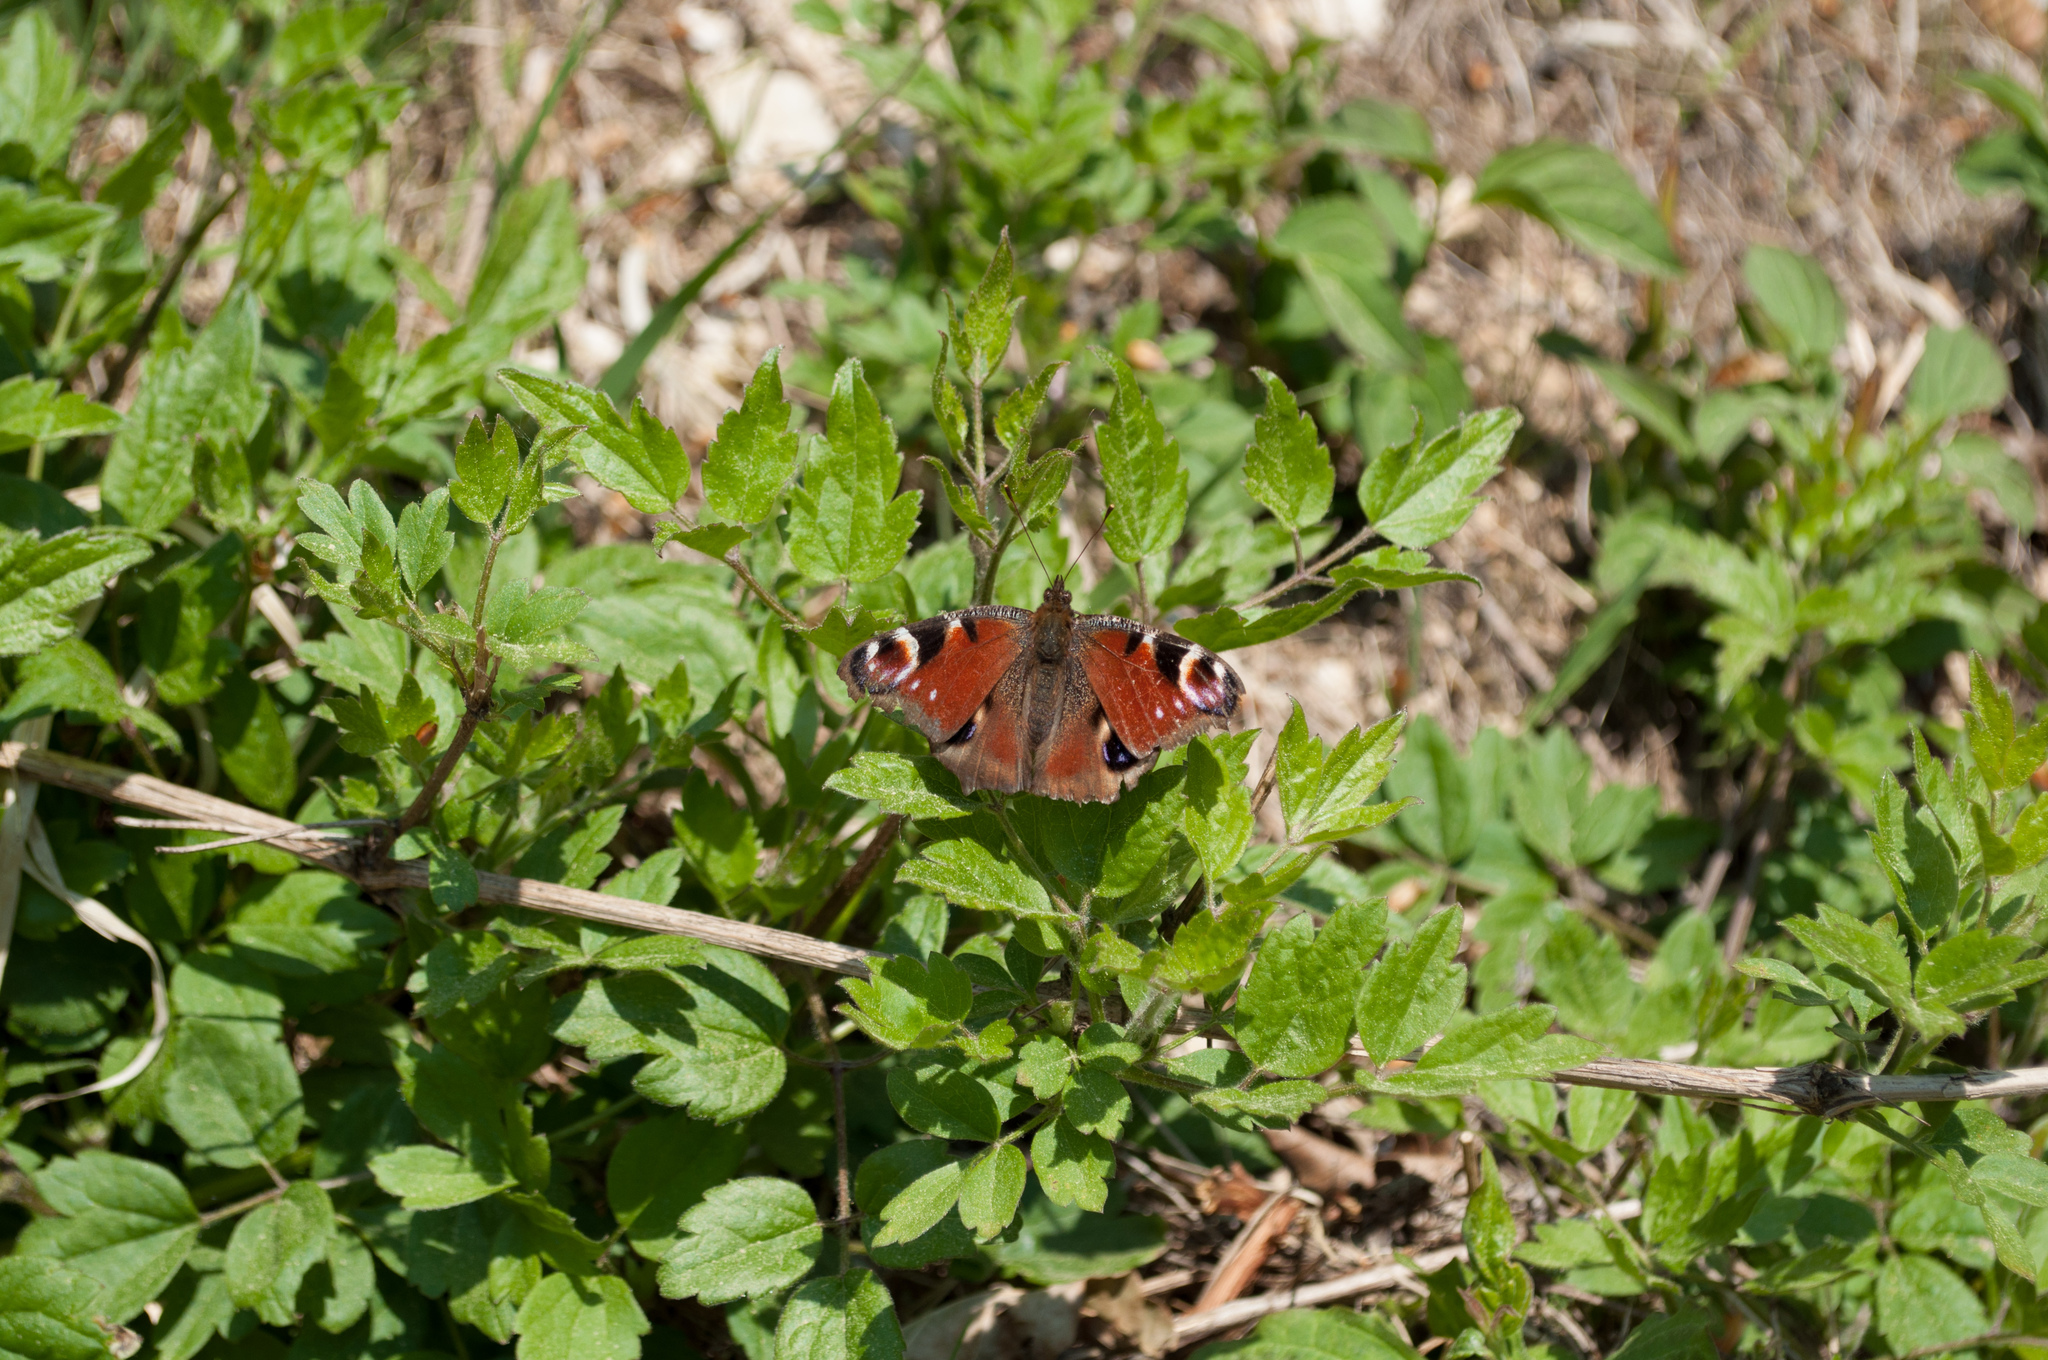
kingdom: Animalia
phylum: Arthropoda
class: Insecta
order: Lepidoptera
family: Nymphalidae
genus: Aglais
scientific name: Aglais io
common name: Peacock
